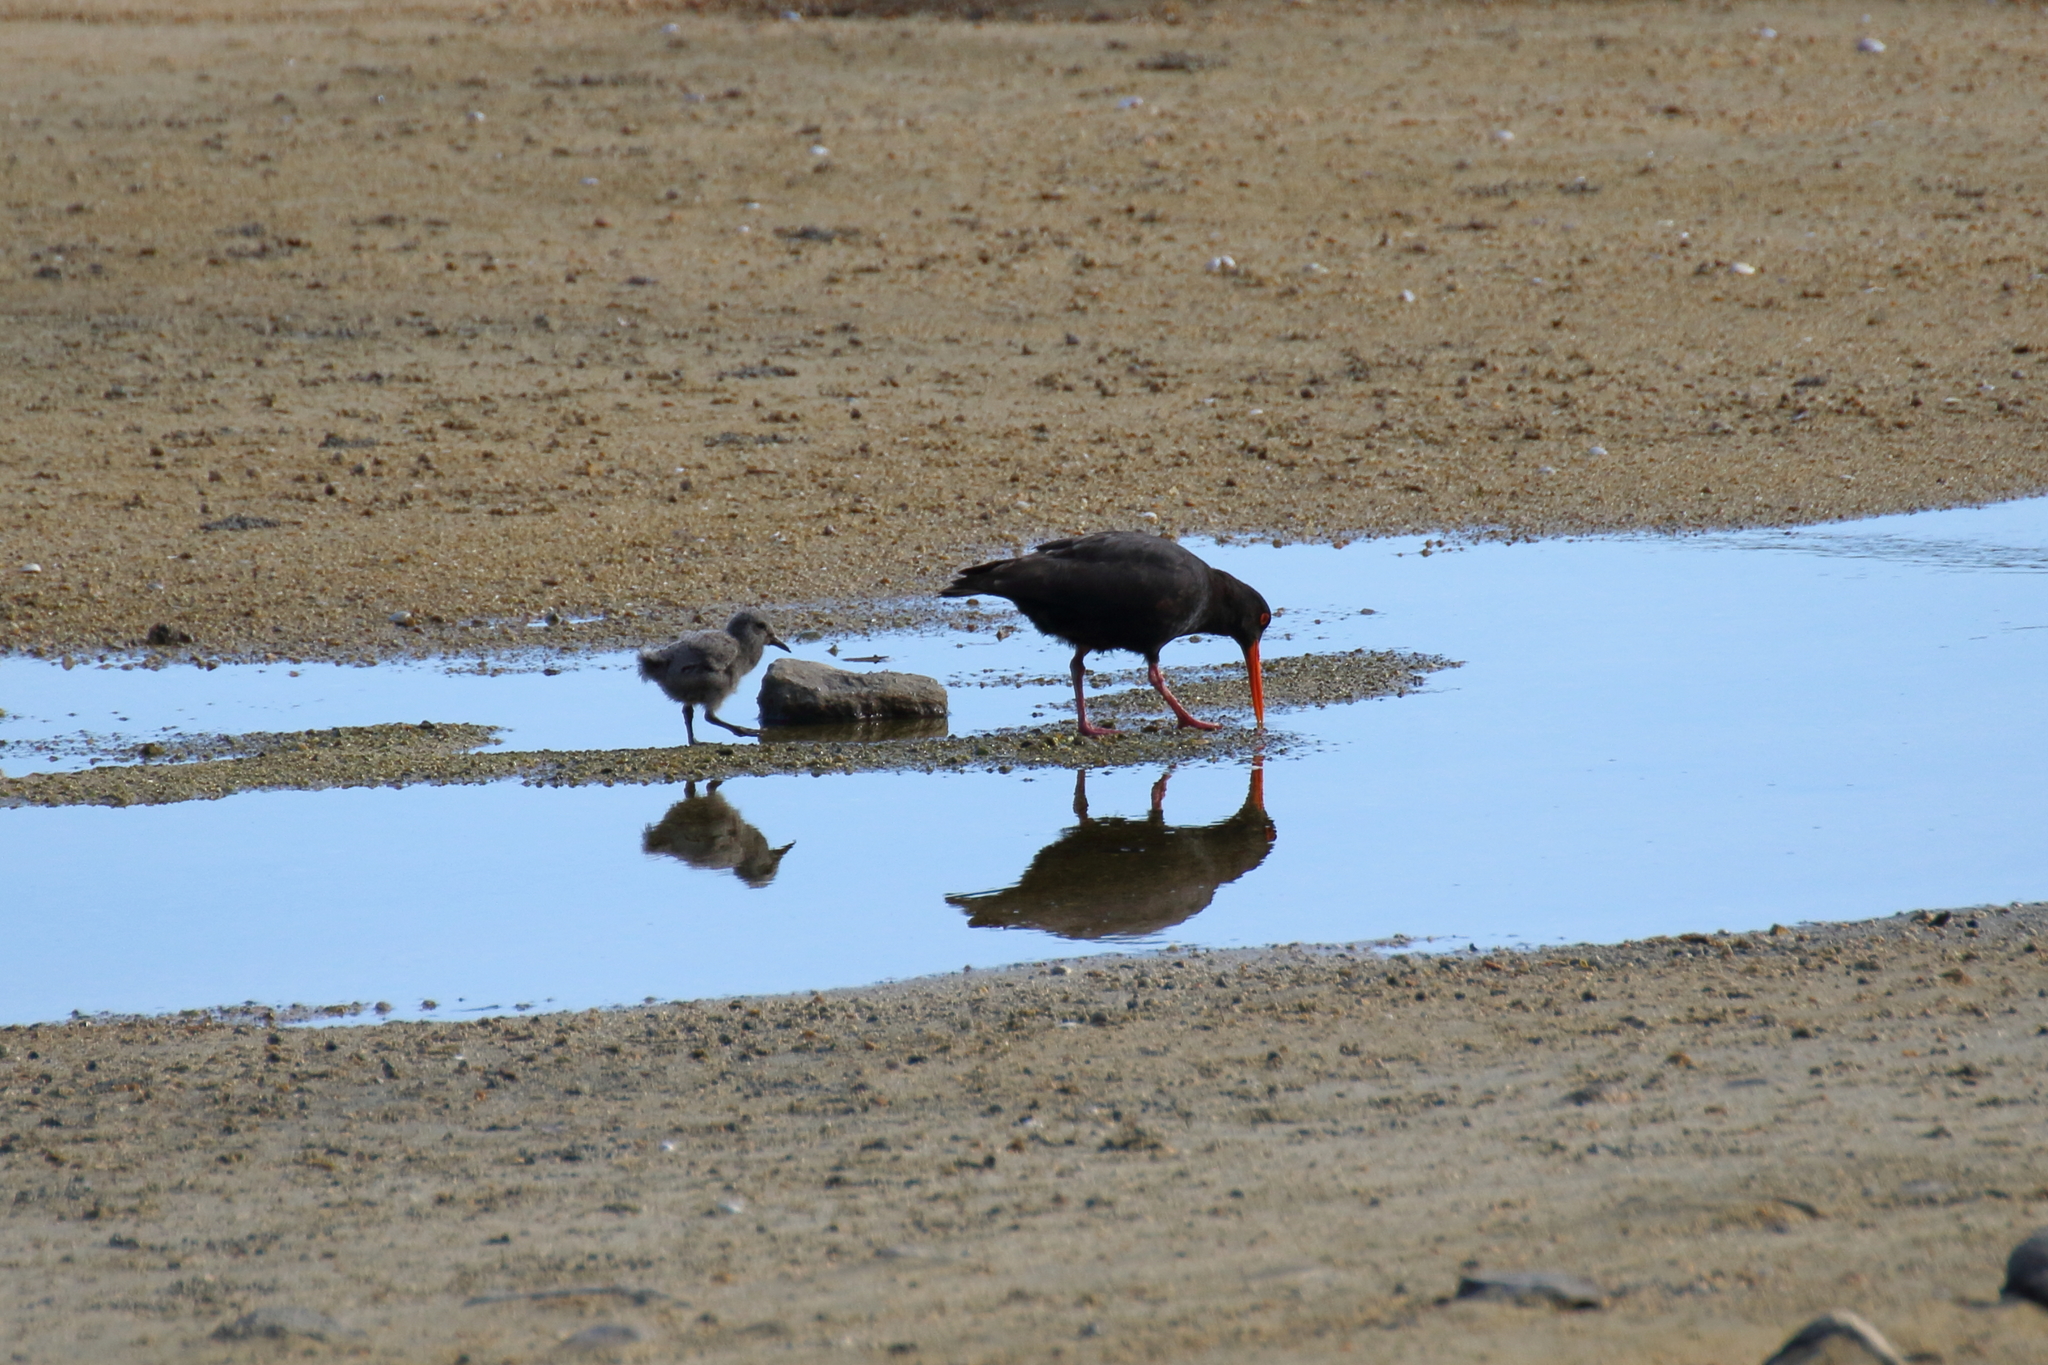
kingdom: Animalia
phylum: Chordata
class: Aves
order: Charadriiformes
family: Haematopodidae
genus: Haematopus
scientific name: Haematopus unicolor
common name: Variable oystercatcher
